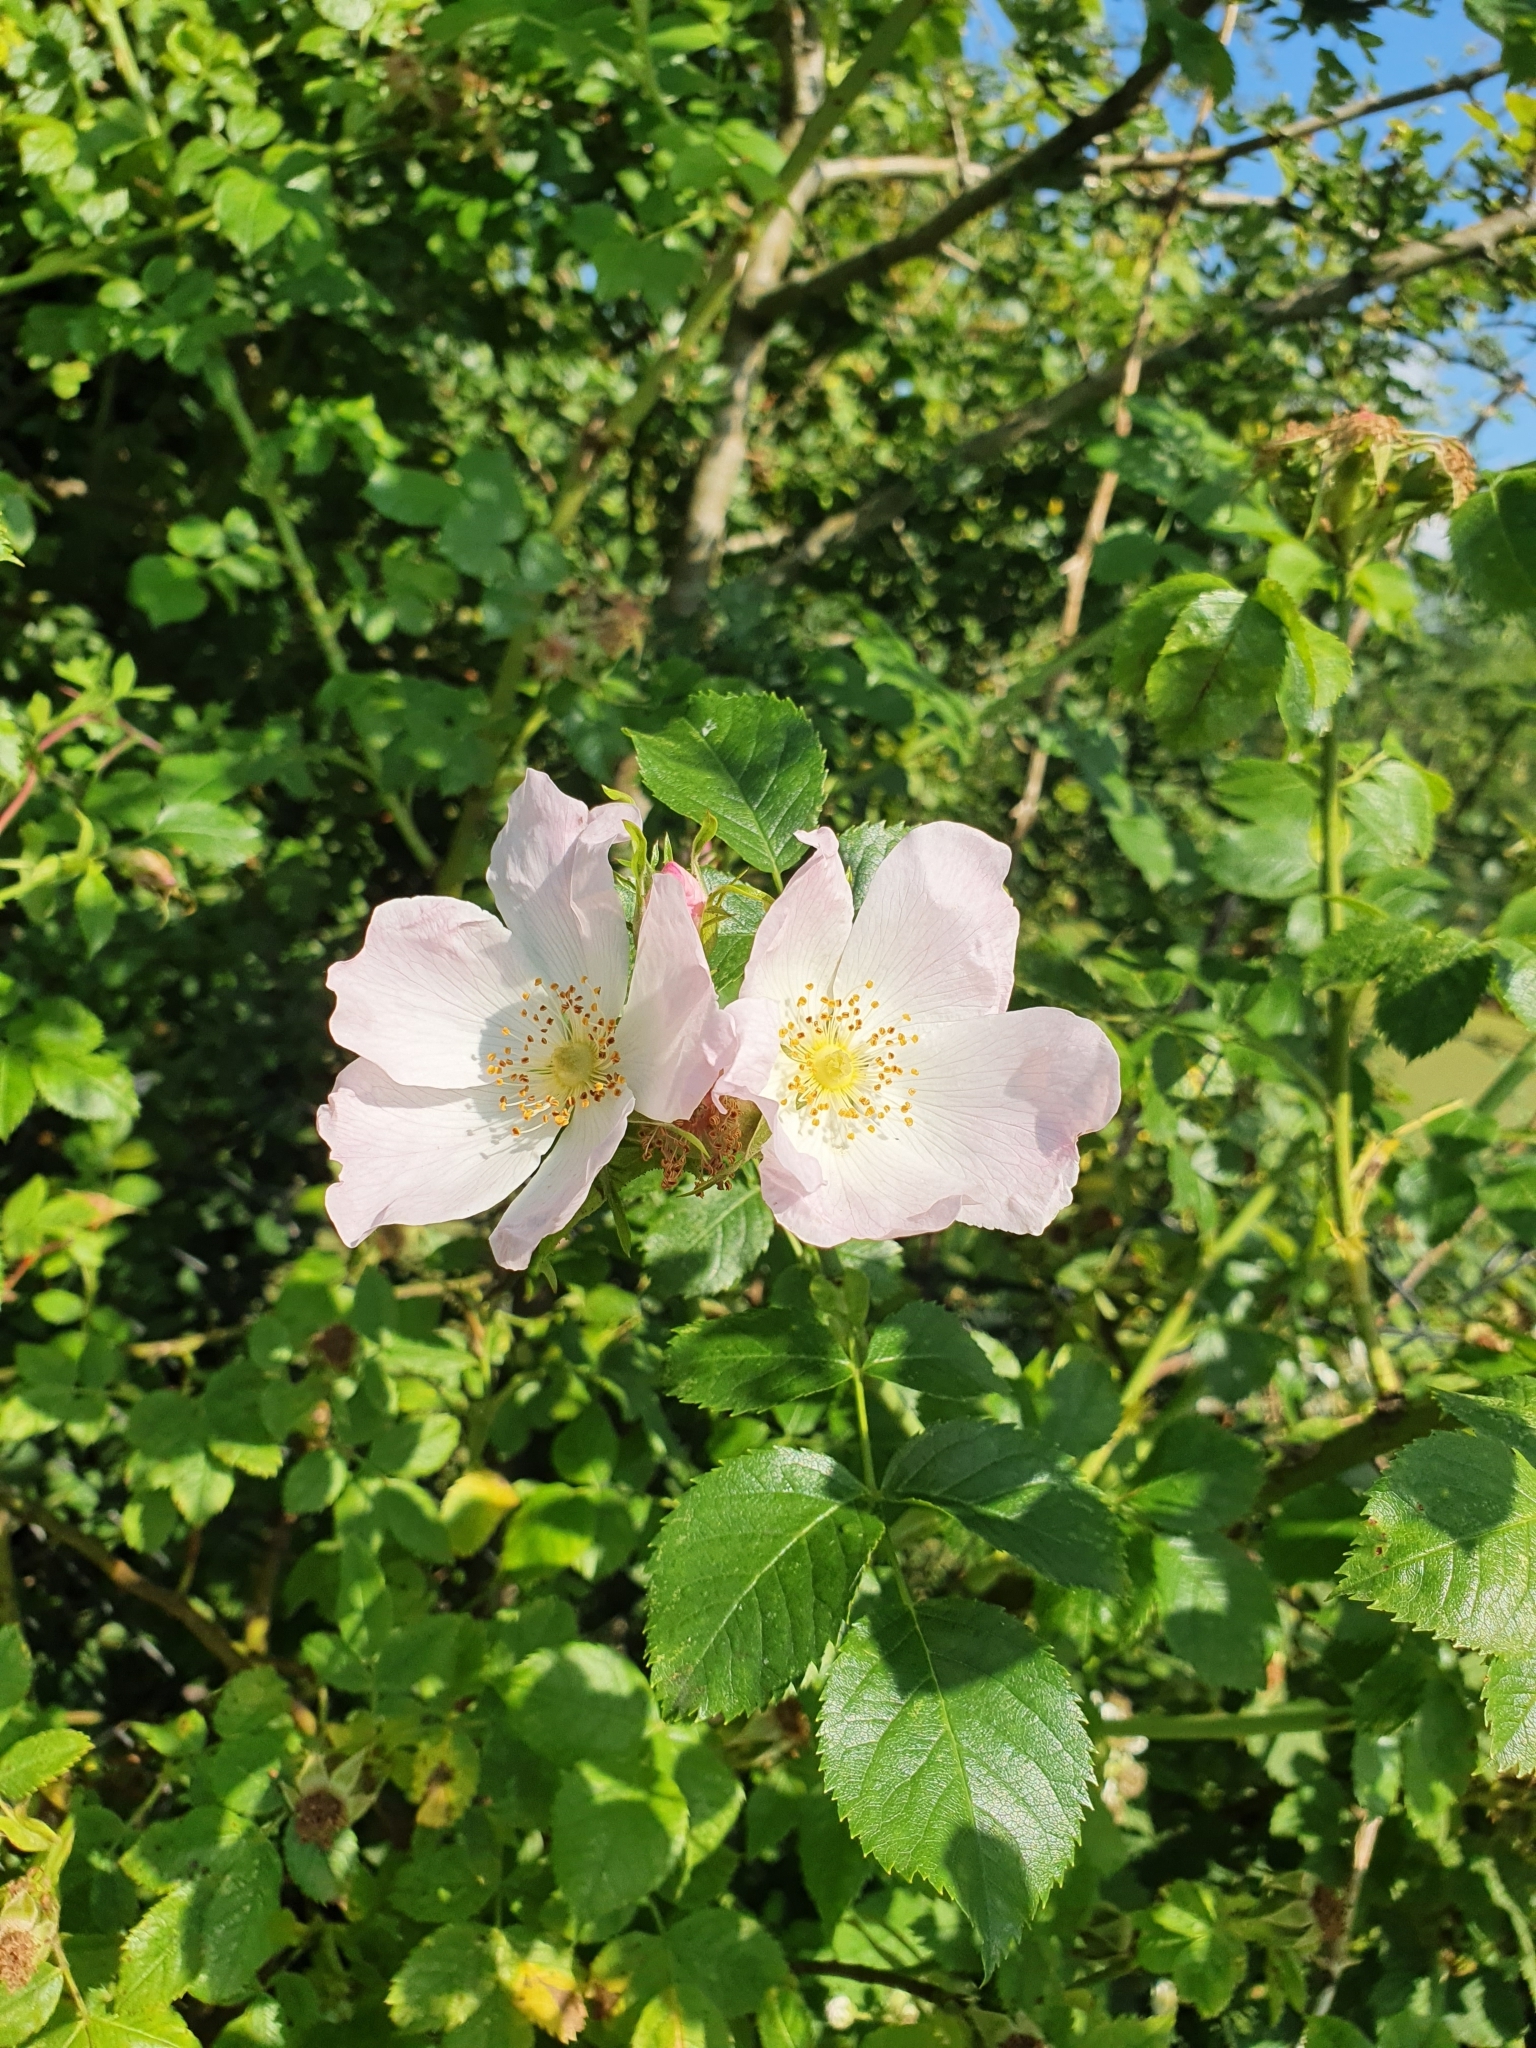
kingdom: Plantae
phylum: Tracheophyta
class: Magnoliopsida
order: Rosales
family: Rosaceae
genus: Rosa
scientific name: Rosa canina
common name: Dog rose
